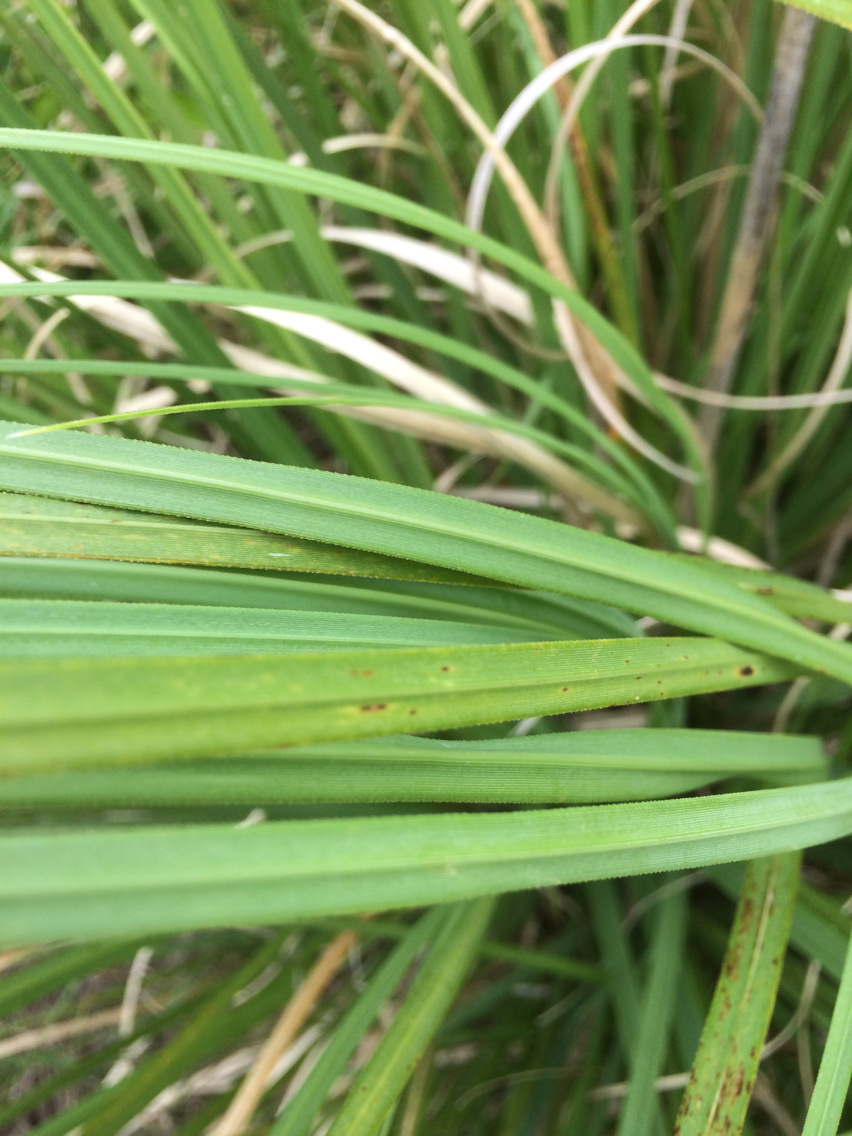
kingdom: Plantae
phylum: Tracheophyta
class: Liliopsida
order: Poales
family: Poaceae
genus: Cortaderia
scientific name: Cortaderia selloana
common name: Uruguayan pampas grass
